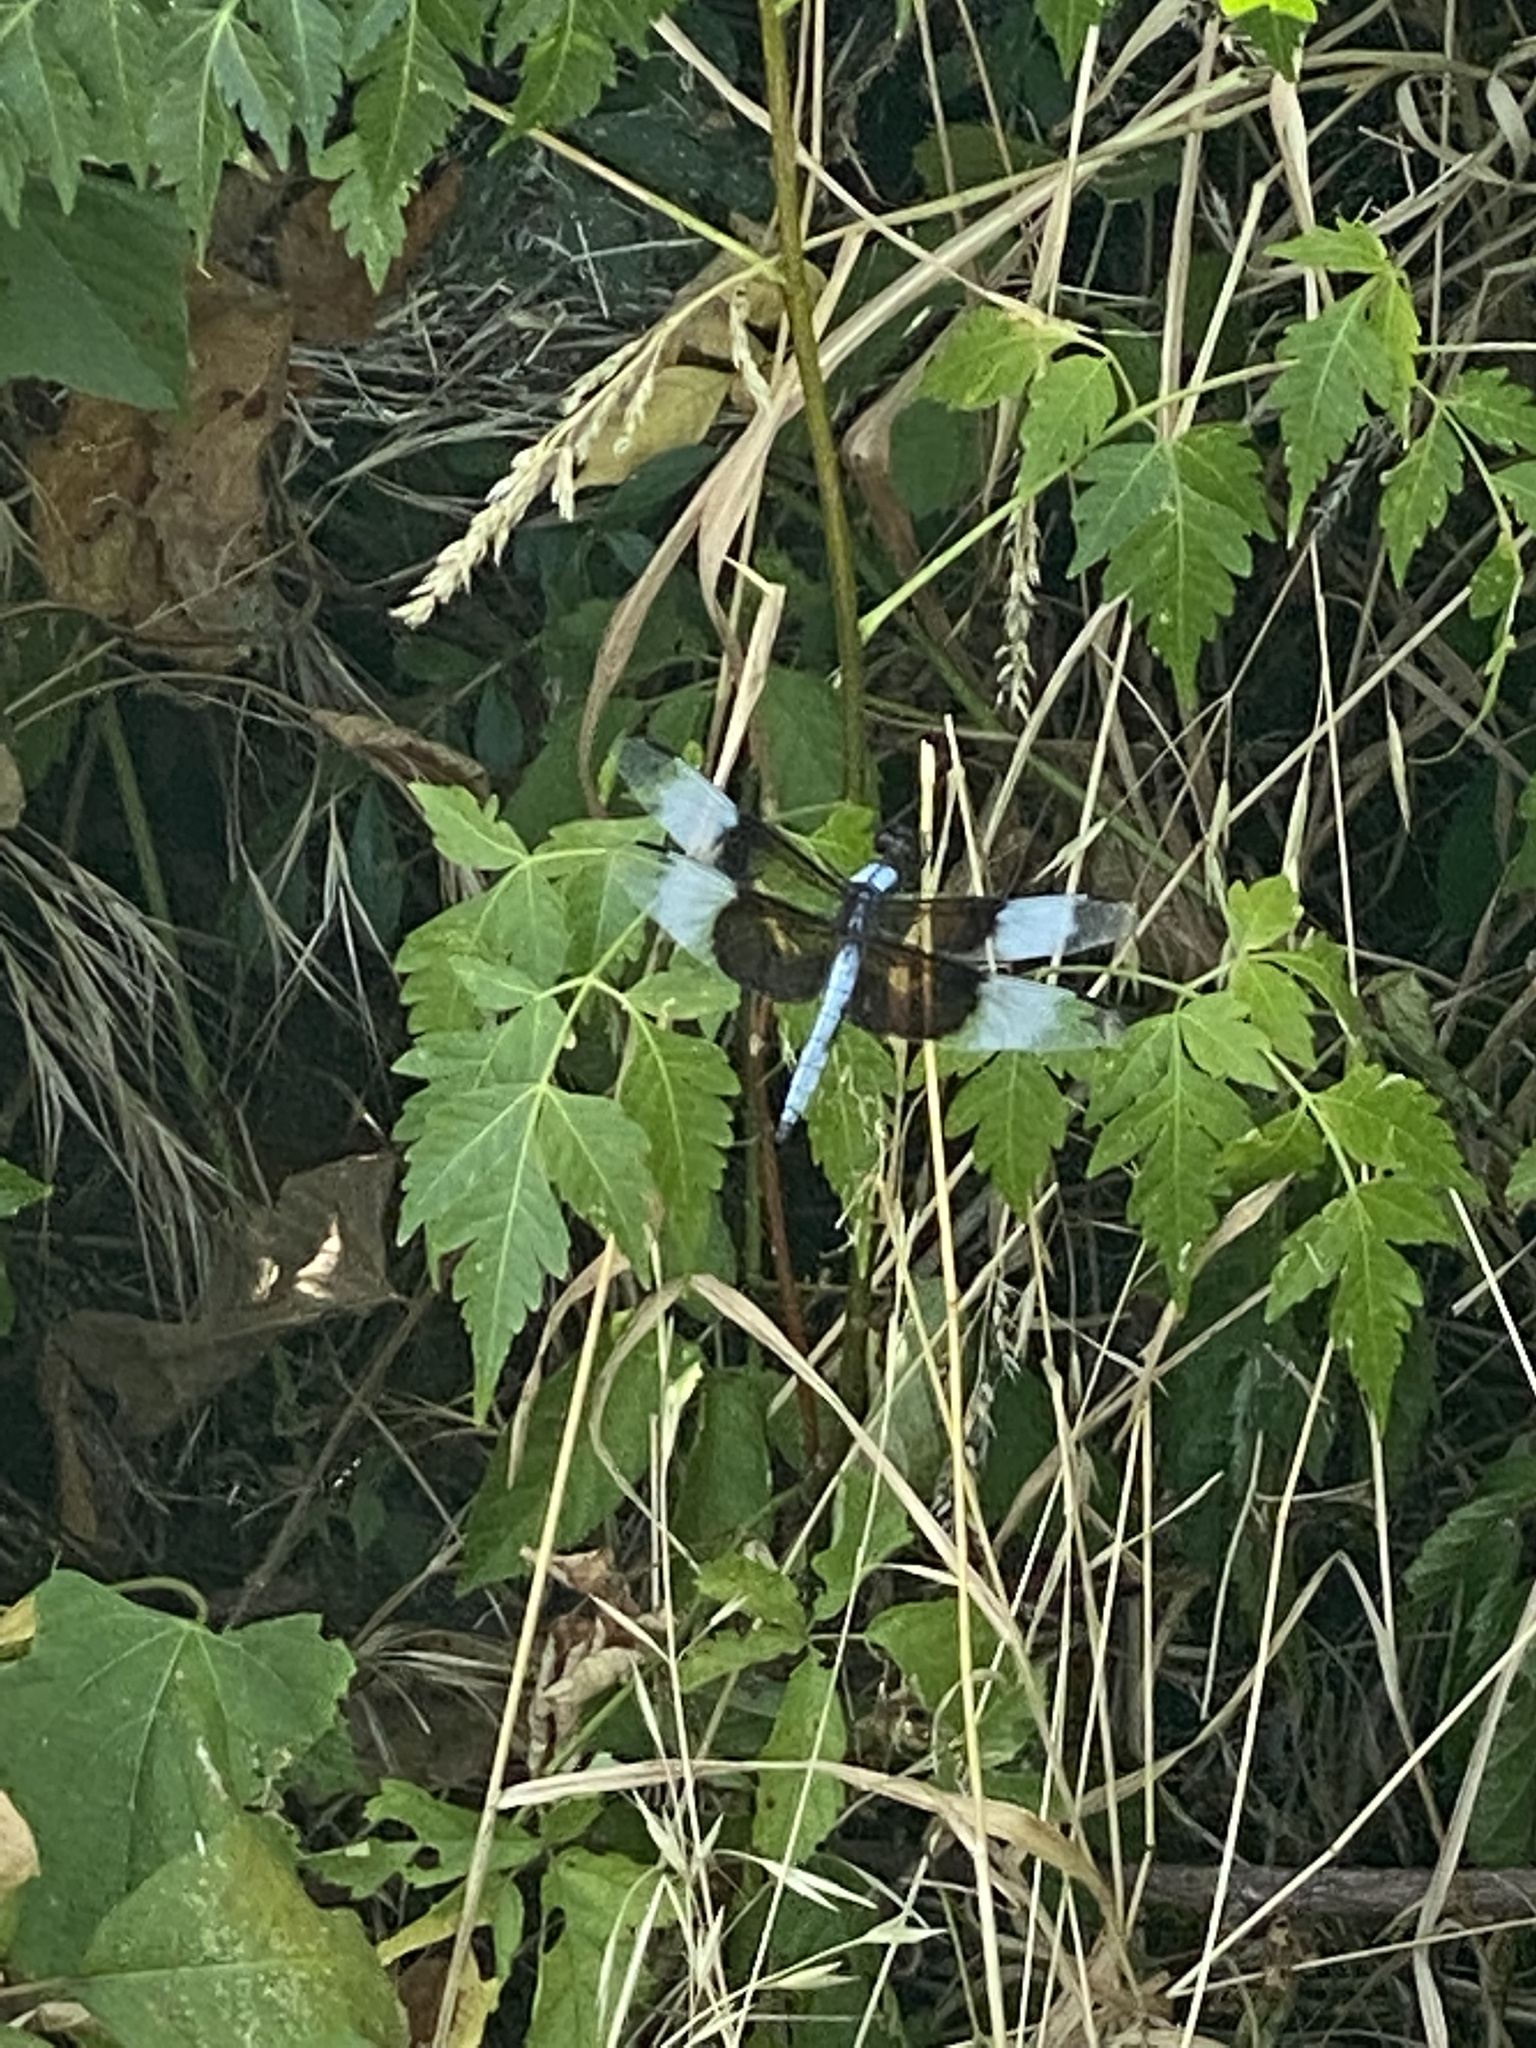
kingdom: Animalia
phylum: Arthropoda
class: Insecta
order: Odonata
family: Libellulidae
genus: Libellula
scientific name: Libellula luctuosa
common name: Widow skimmer
